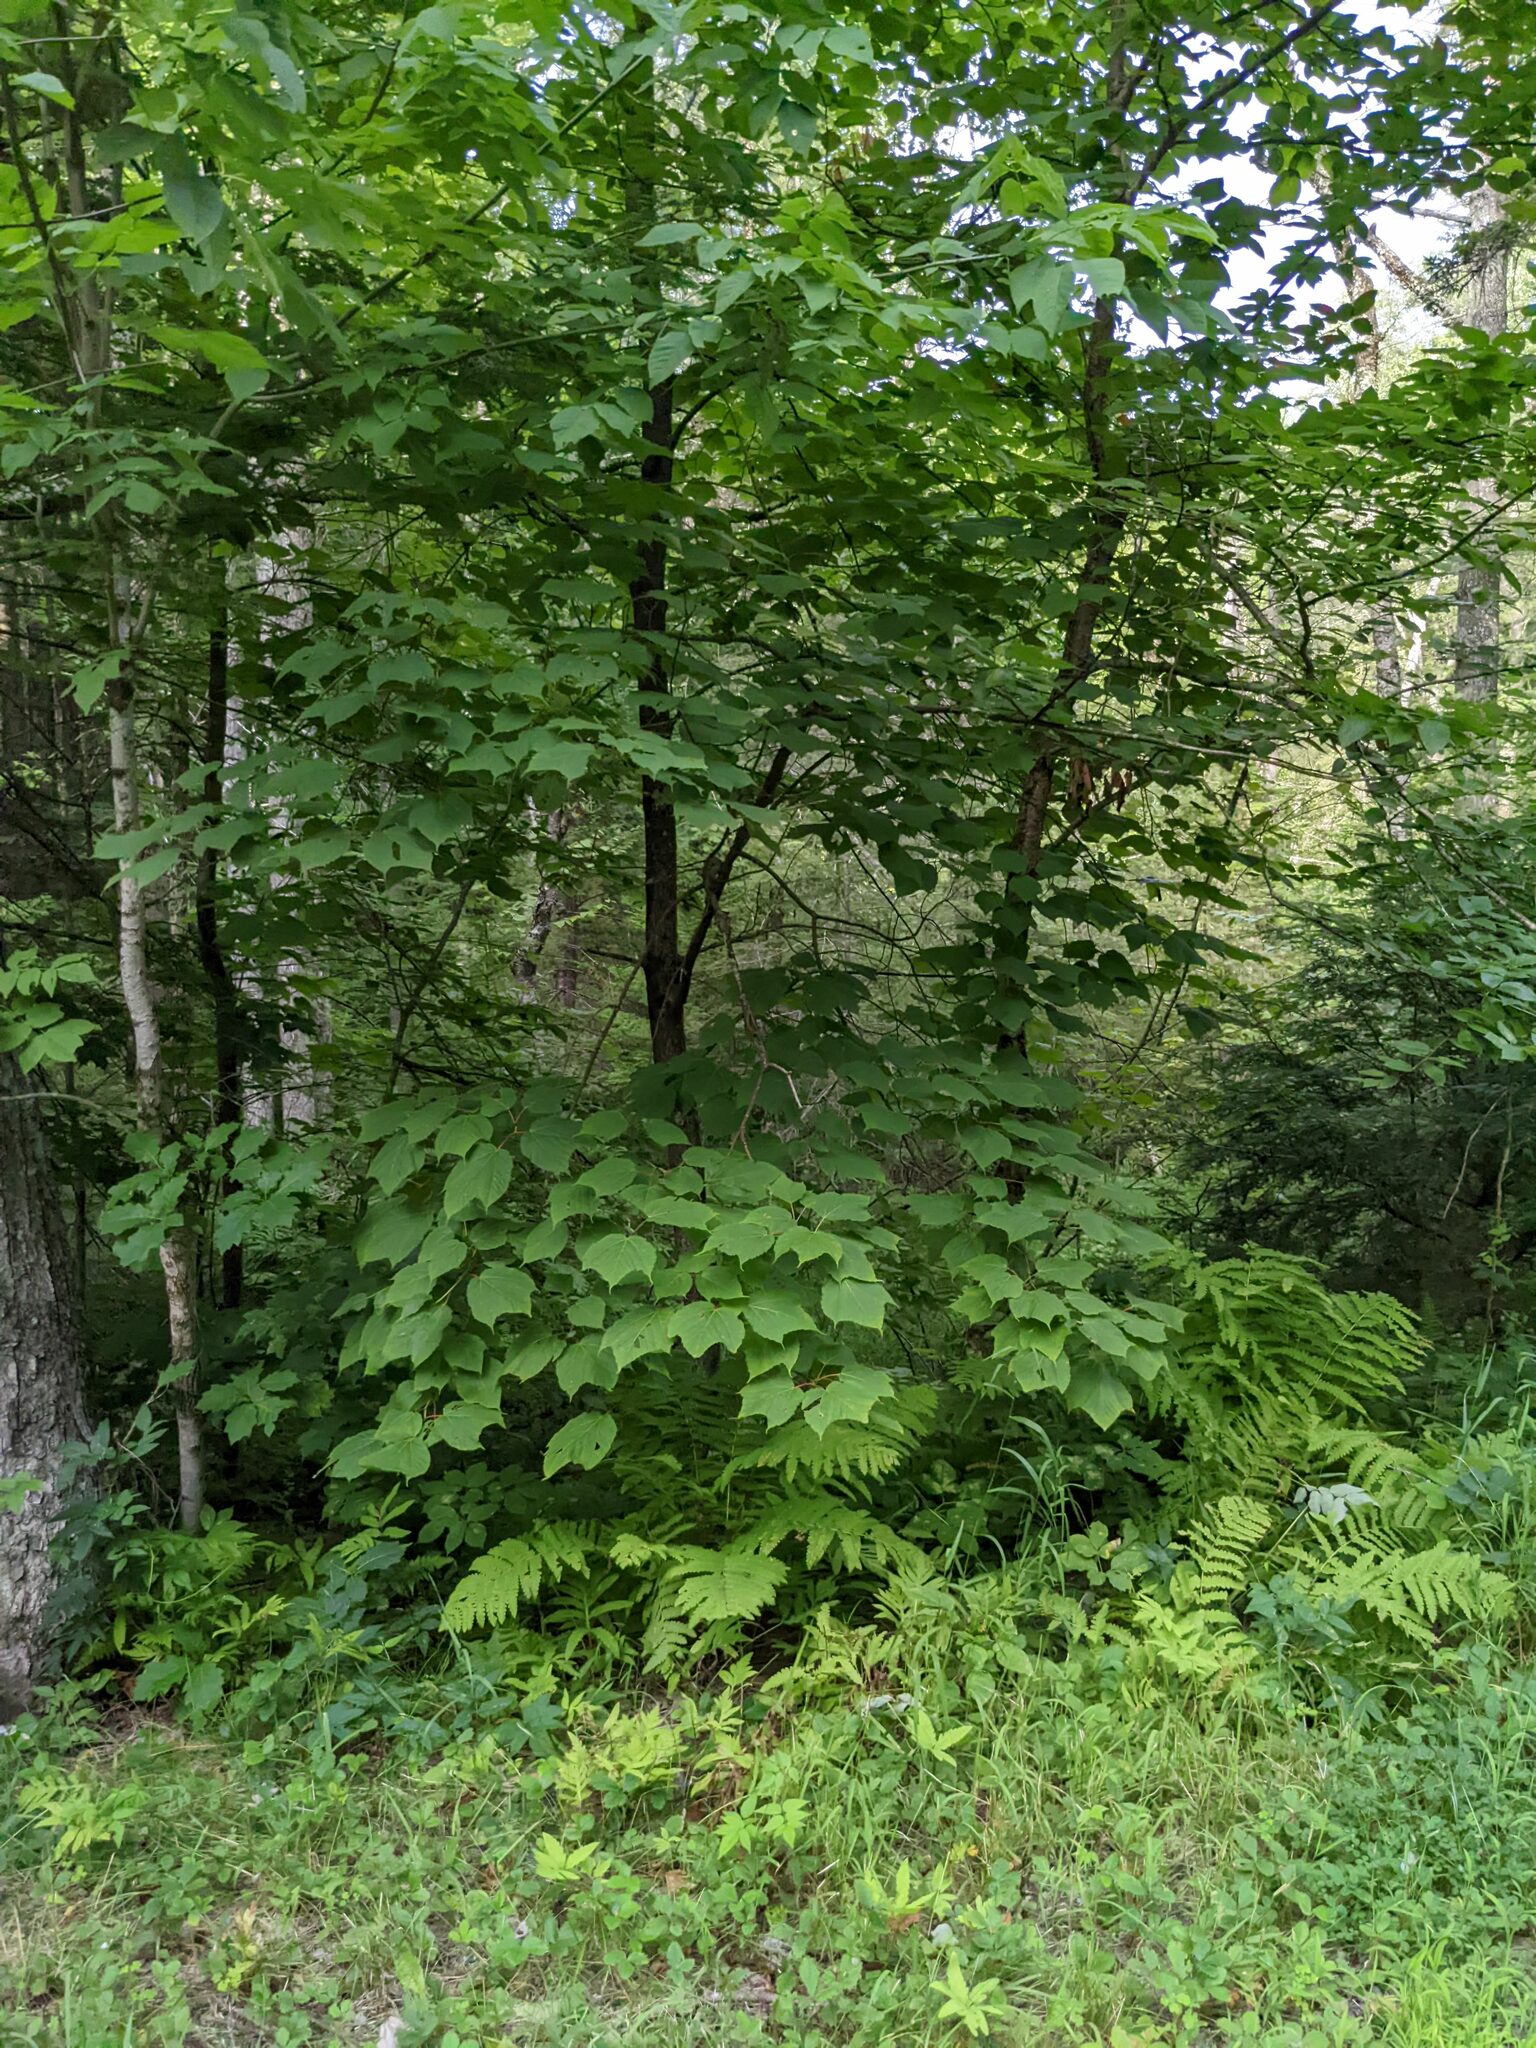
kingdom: Plantae
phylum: Tracheophyta
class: Magnoliopsida
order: Sapindales
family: Sapindaceae
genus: Acer
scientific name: Acer pensylvanicum
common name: Moosewood
